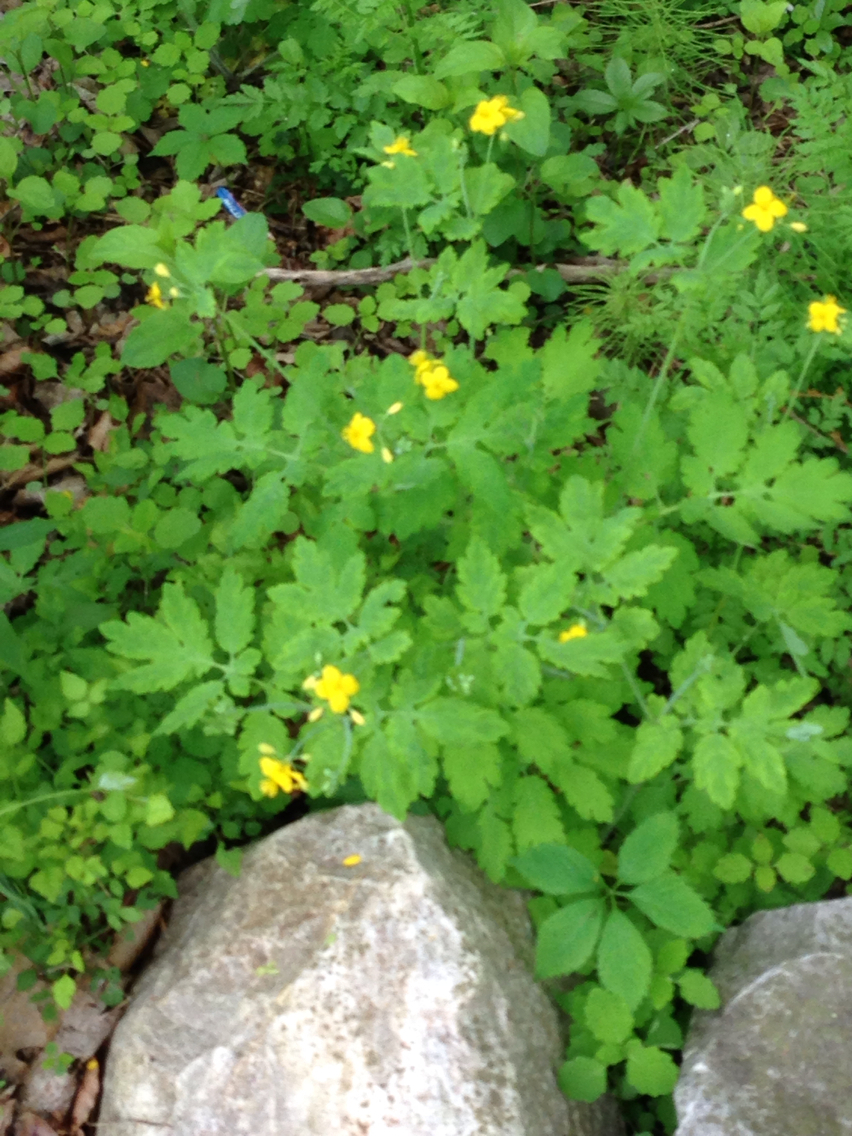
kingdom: Plantae
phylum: Tracheophyta
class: Magnoliopsida
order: Ranunculales
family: Papaveraceae
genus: Chelidonium
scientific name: Chelidonium majus
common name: Greater celandine
